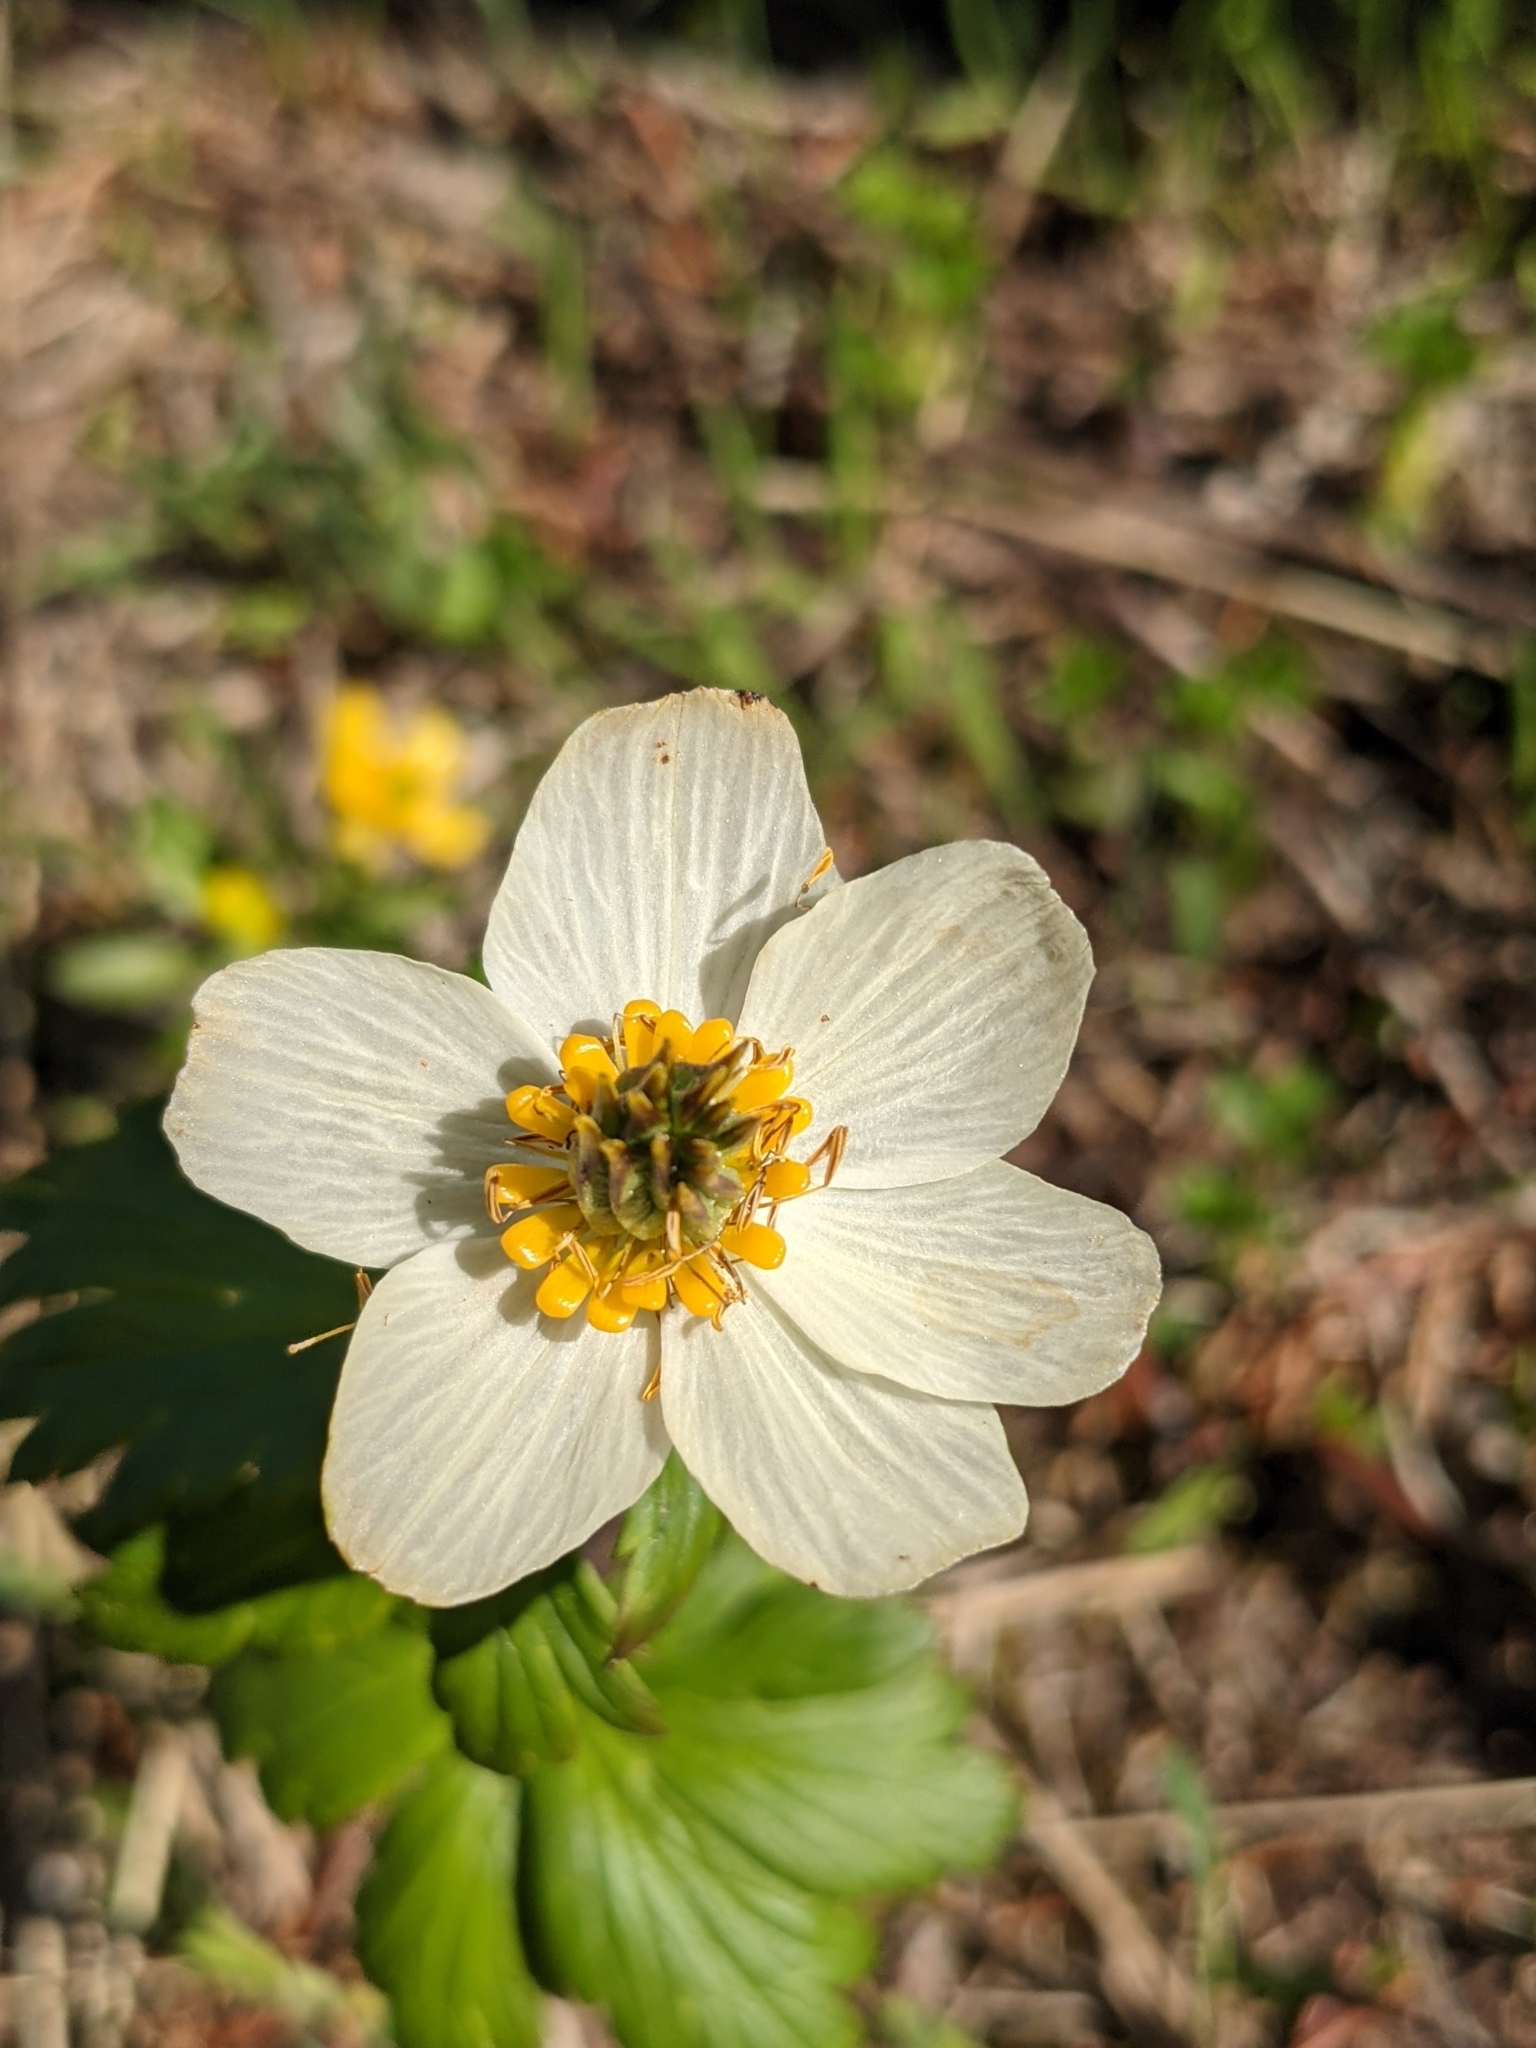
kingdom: Plantae
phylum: Tracheophyta
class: Magnoliopsida
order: Ranunculales
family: Ranunculaceae
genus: Trollius
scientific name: Trollius laxus
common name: American globeflower
